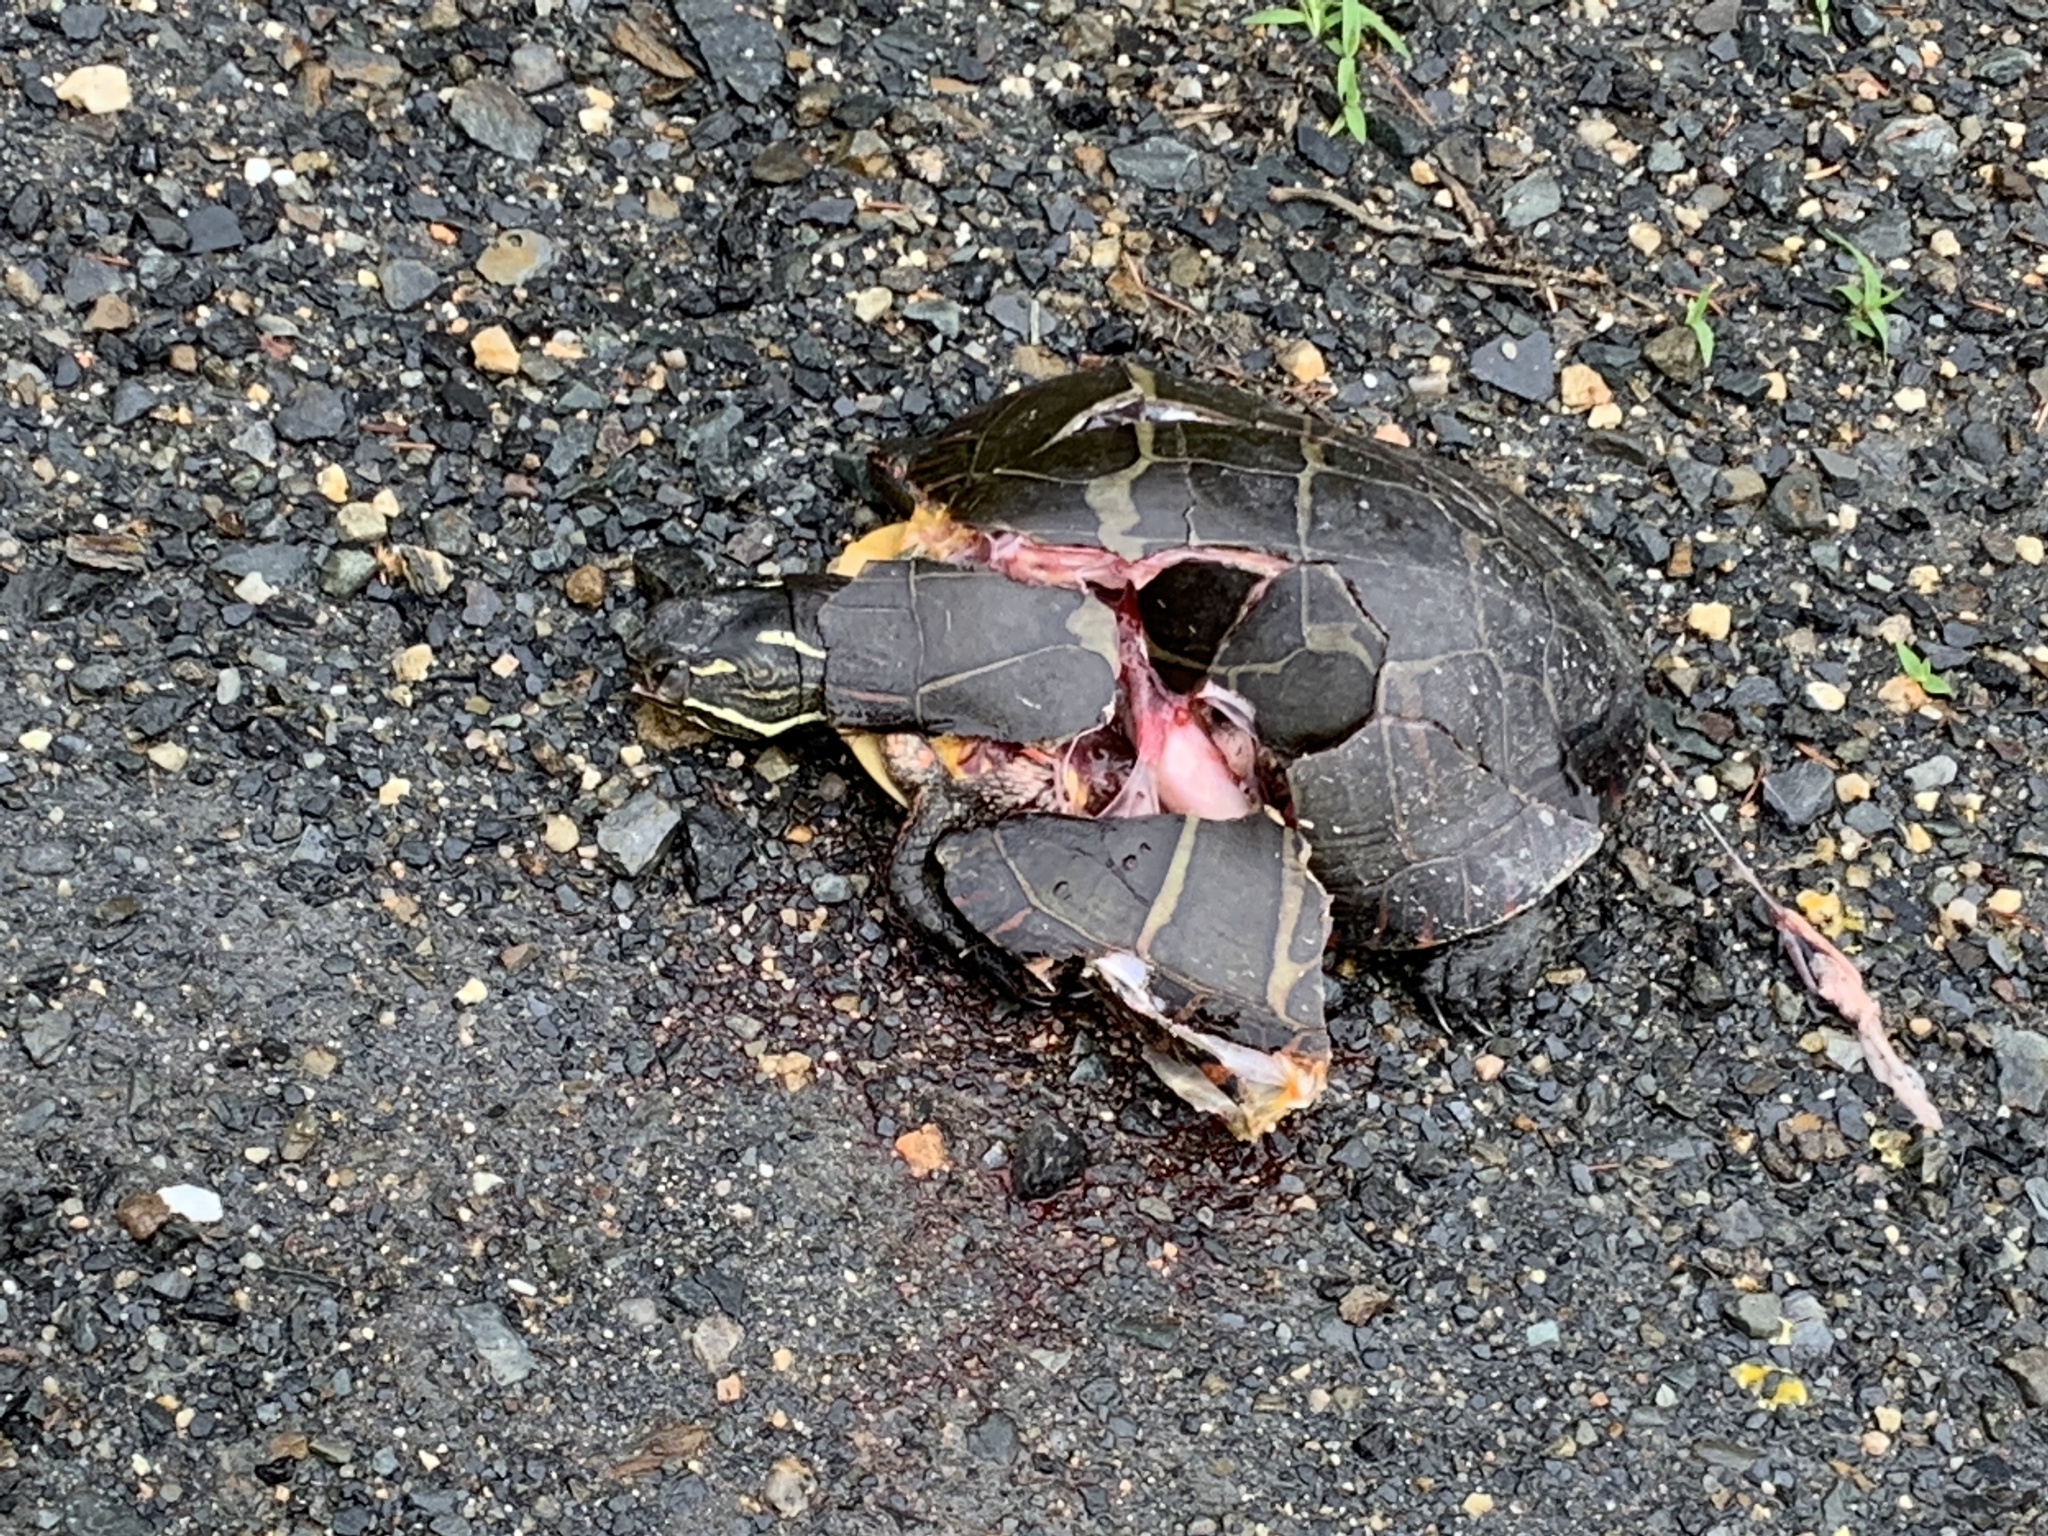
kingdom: Animalia
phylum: Chordata
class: Testudines
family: Emydidae
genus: Chrysemys
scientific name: Chrysemys picta
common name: Painted turtle
